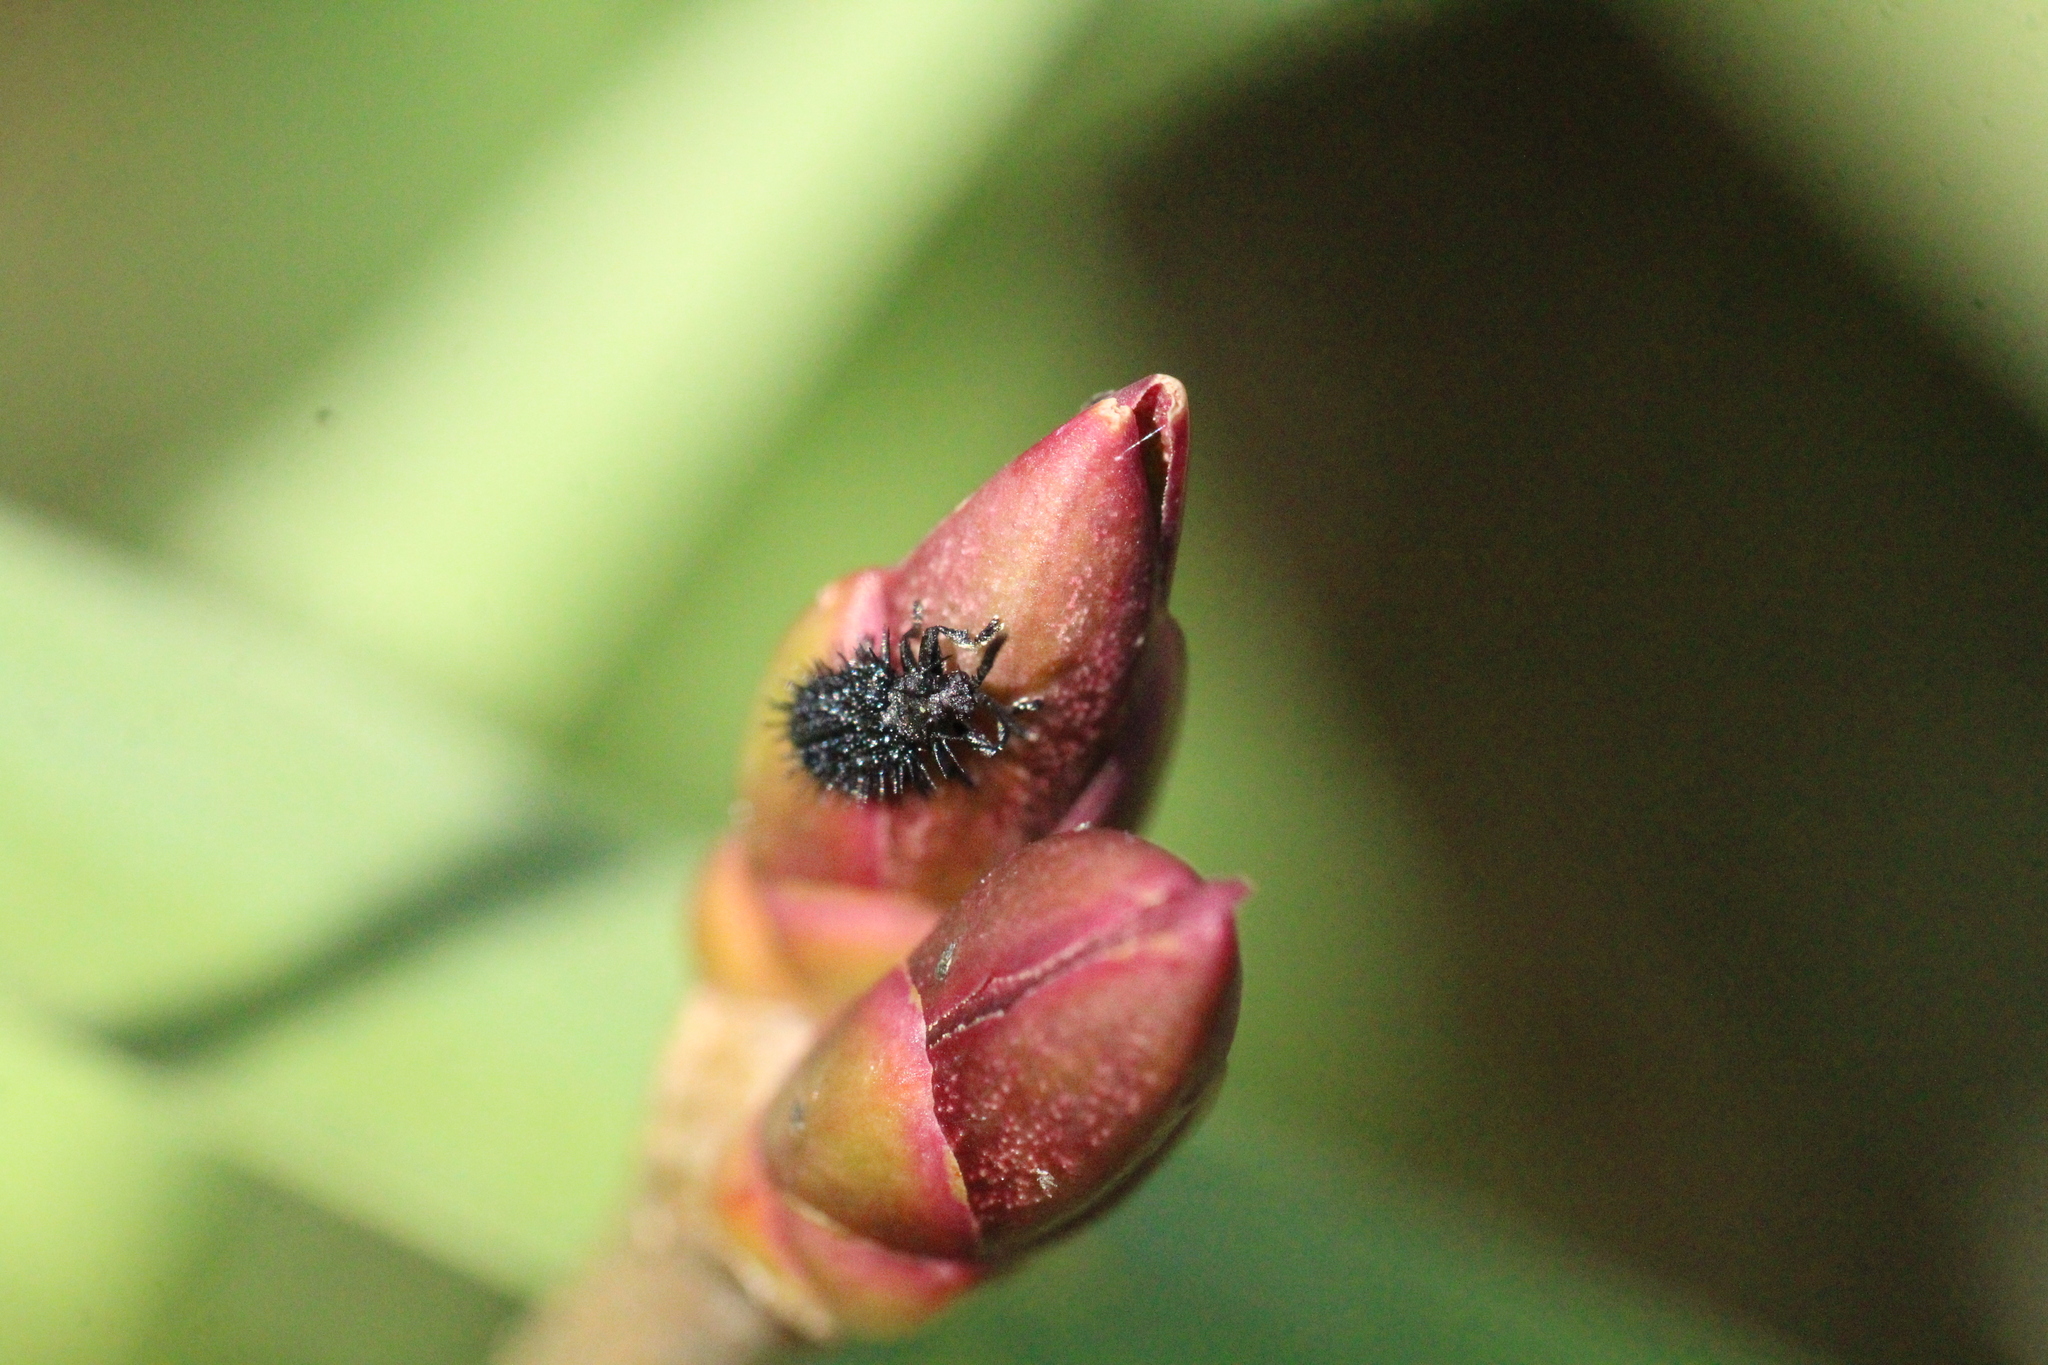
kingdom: Animalia
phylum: Arthropoda
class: Insecta
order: Coleoptera
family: Chrysomelidae
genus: Hispa
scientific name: Hispa atra
